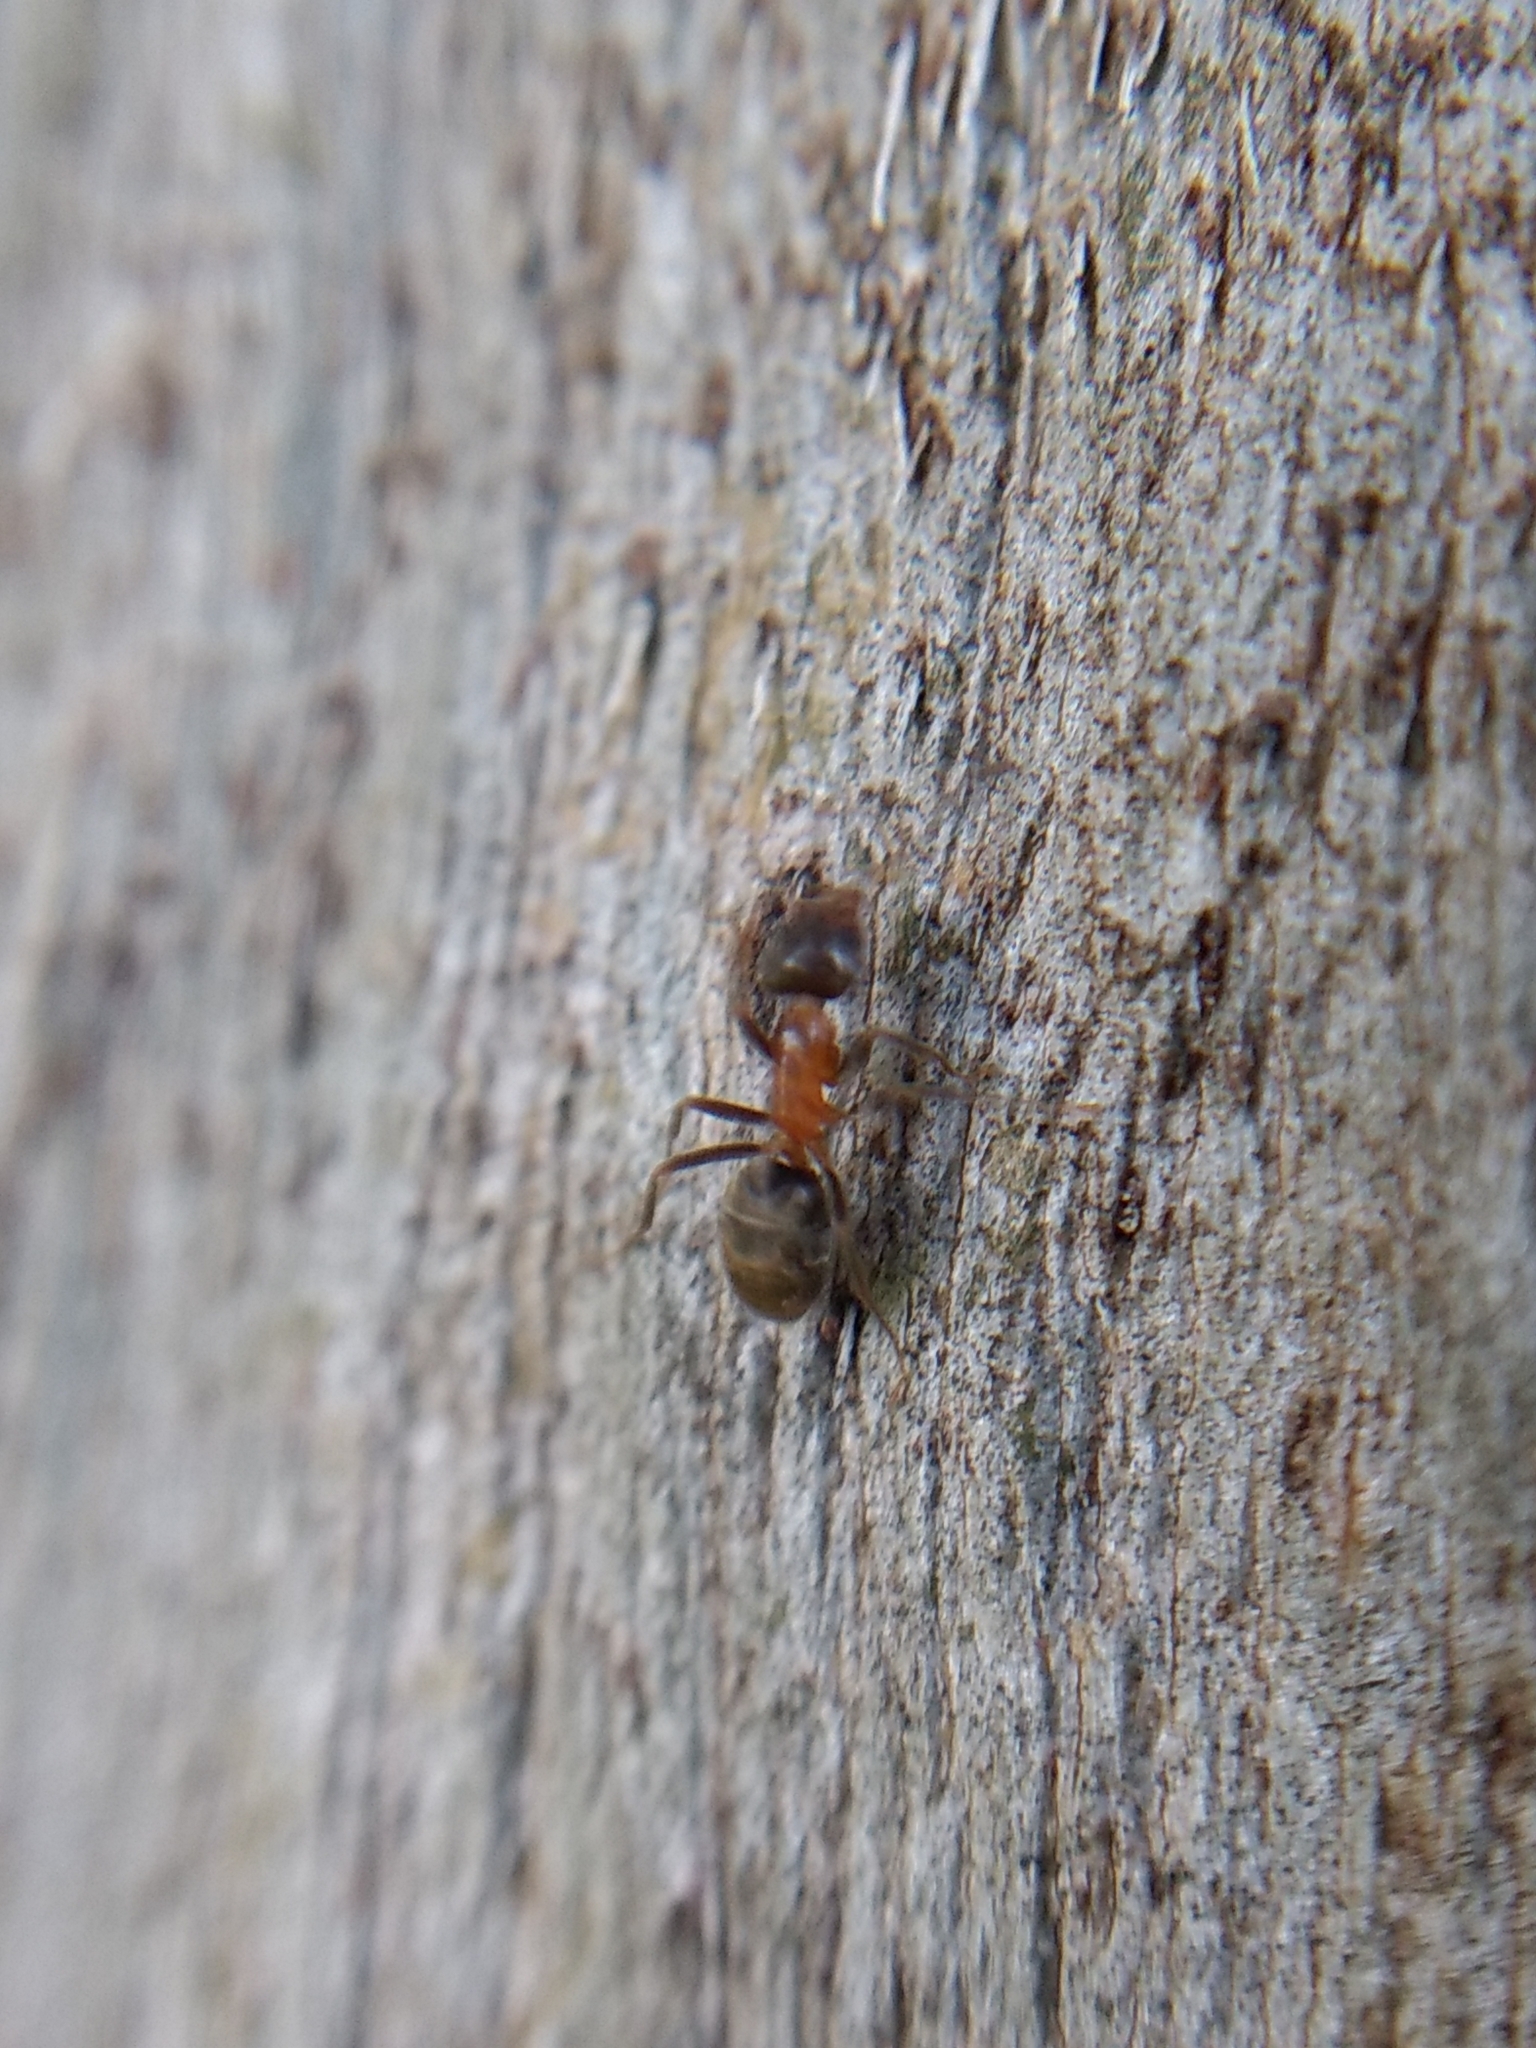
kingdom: Animalia
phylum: Arthropoda
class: Insecta
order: Hymenoptera
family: Formicidae
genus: Liometopum
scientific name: Liometopum occidentale
